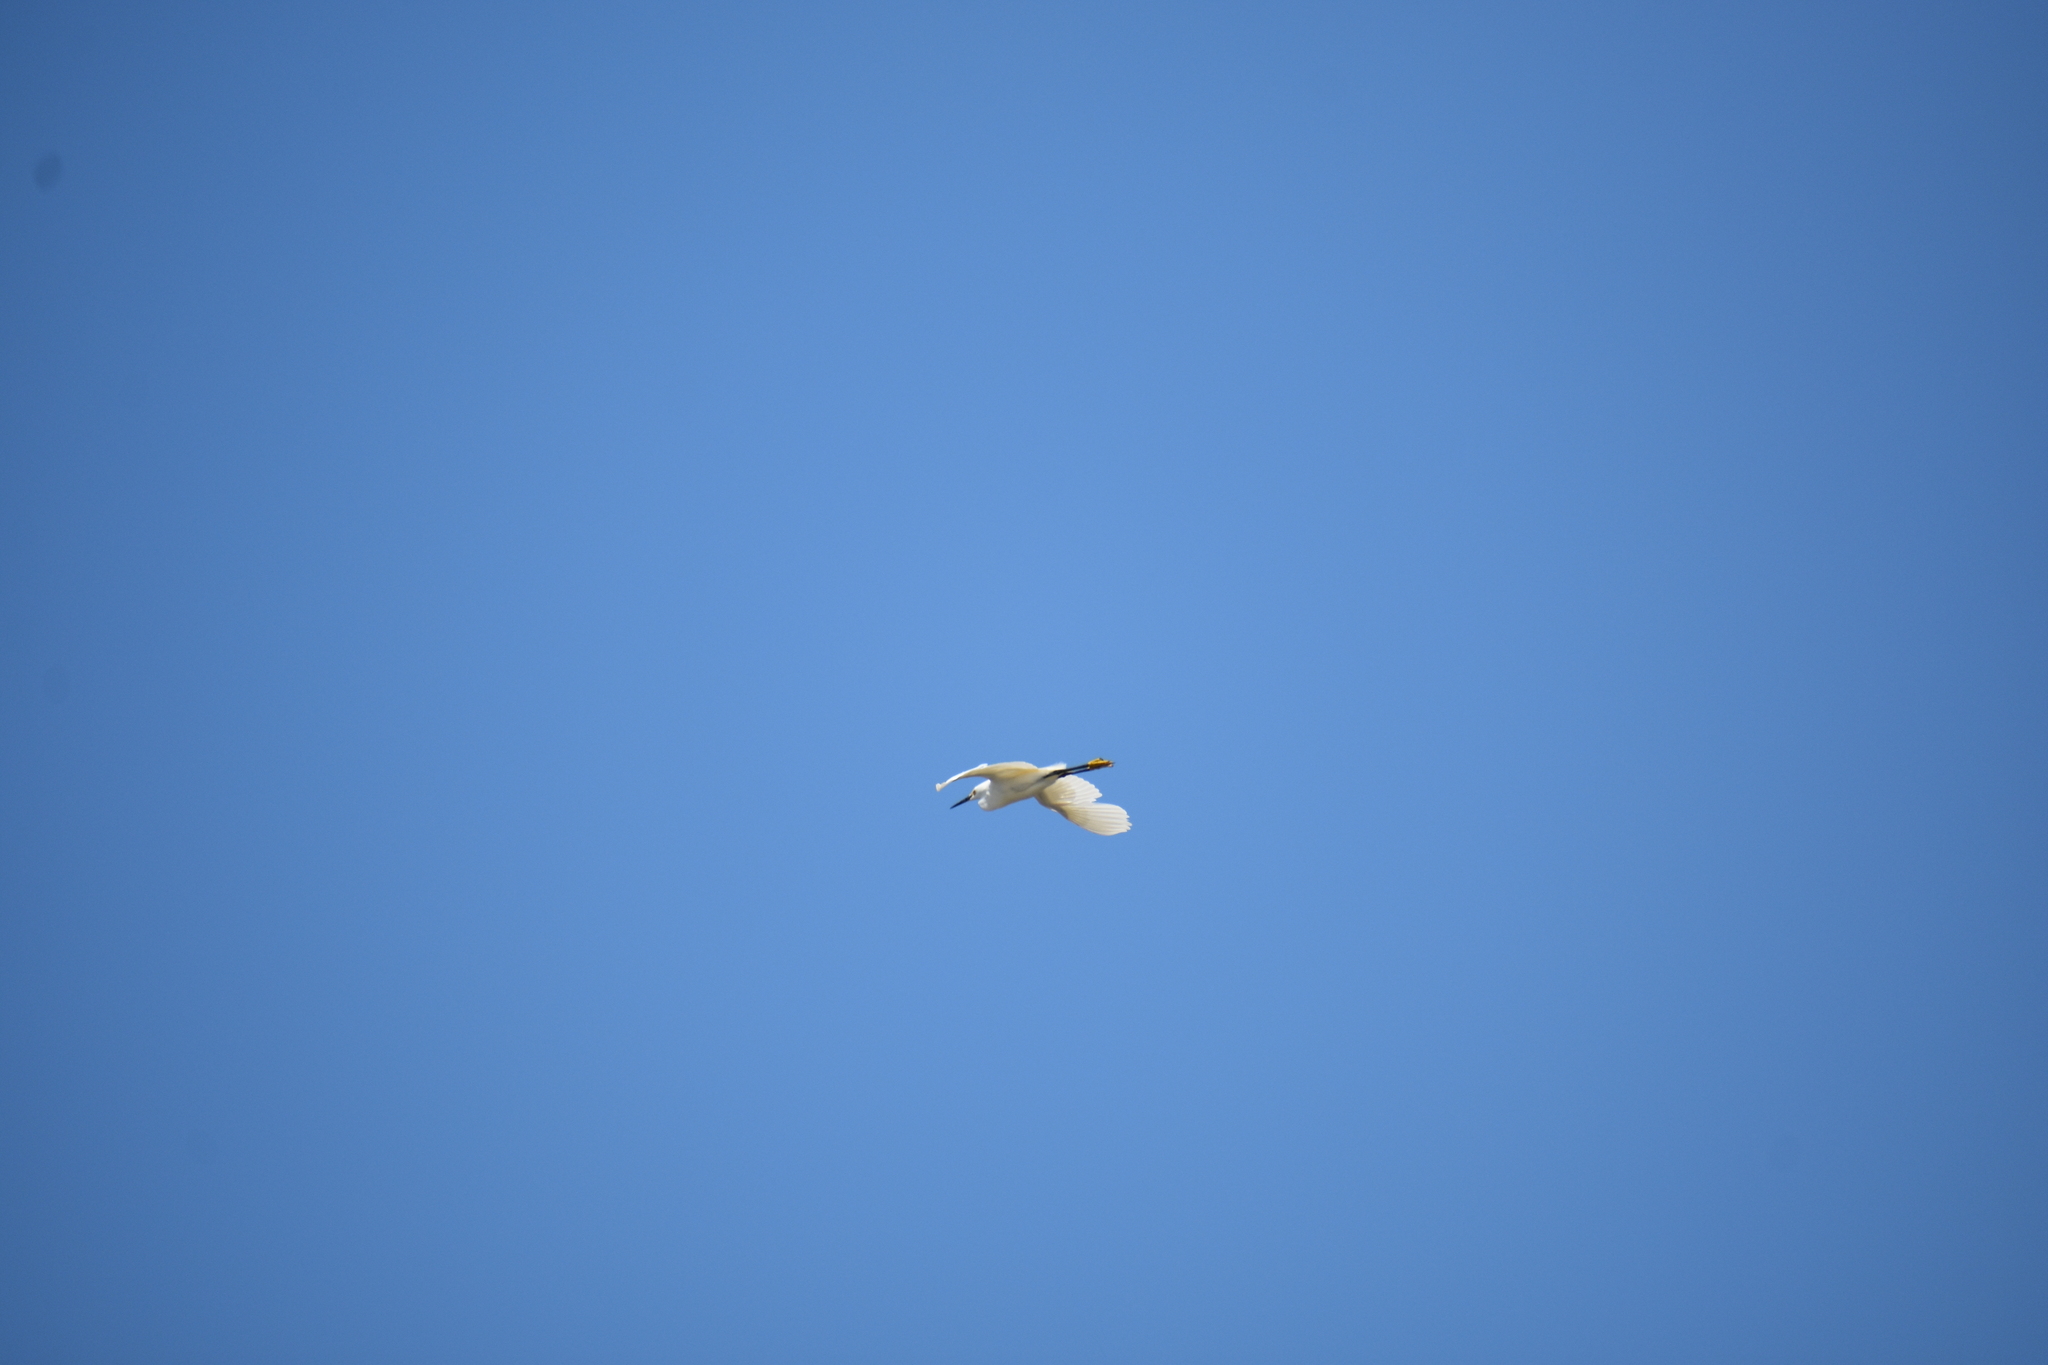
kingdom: Animalia
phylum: Chordata
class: Aves
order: Pelecaniformes
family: Ardeidae
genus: Egretta
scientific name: Egretta thula
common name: Snowy egret
